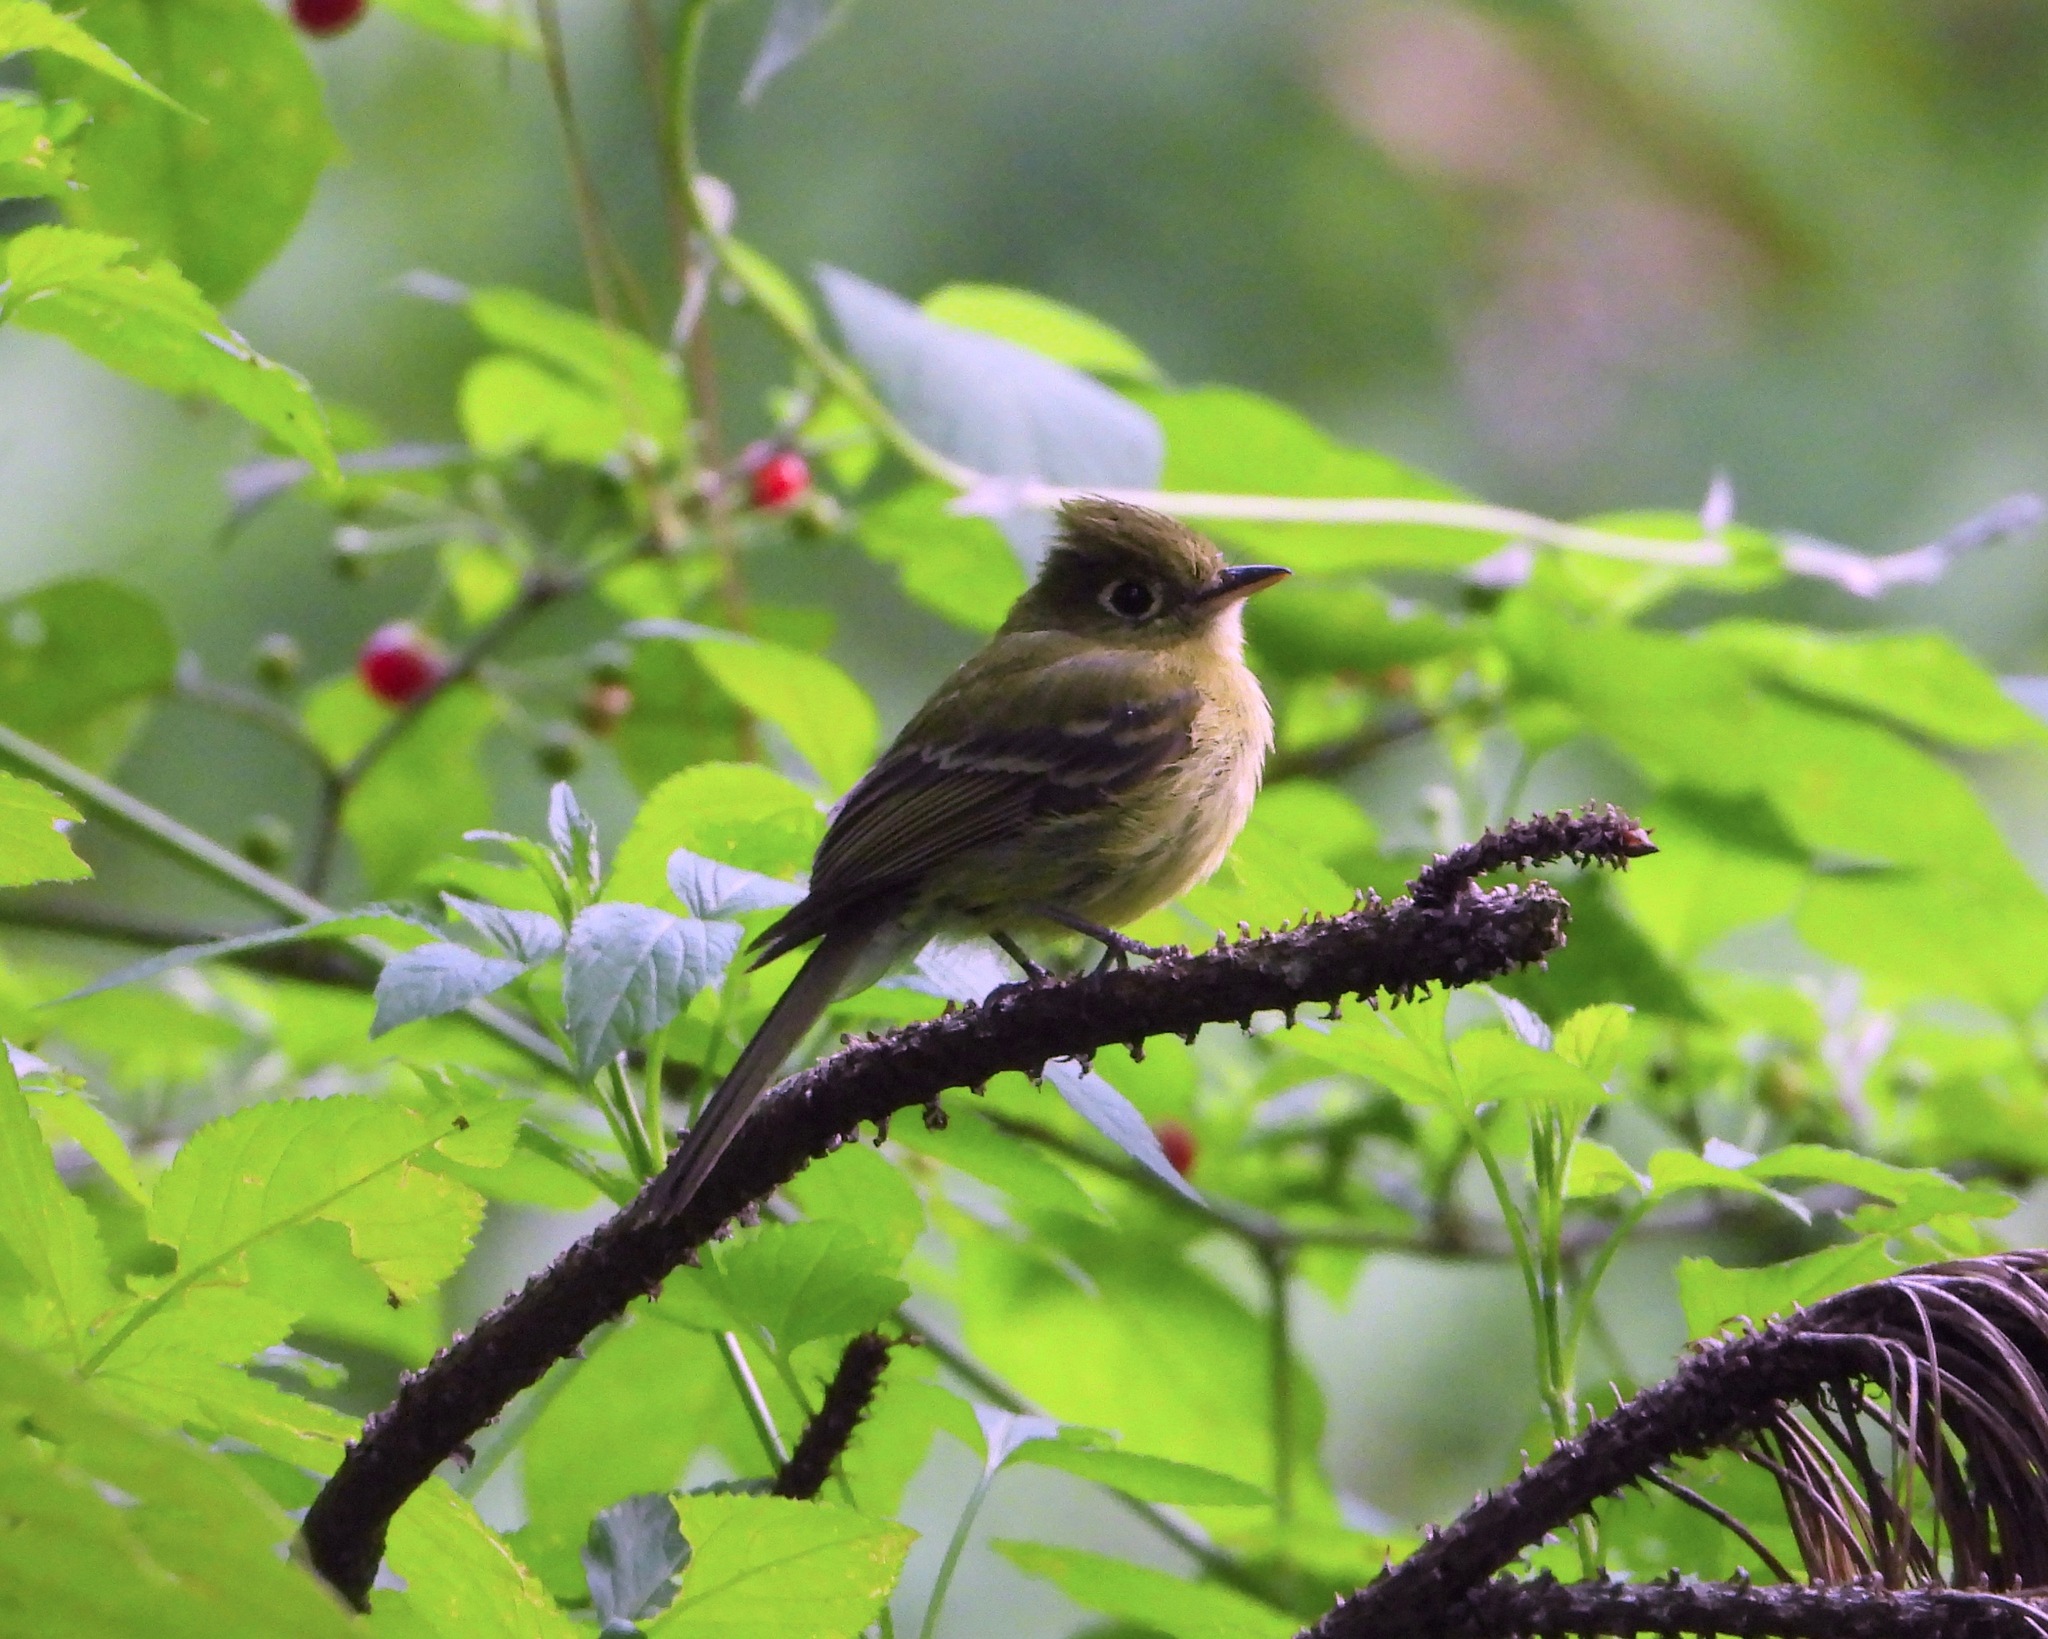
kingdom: Animalia
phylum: Chordata
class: Aves
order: Passeriformes
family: Tyrannidae
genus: Empidonax
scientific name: Empidonax flavescens
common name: Yellowish flycatcher
